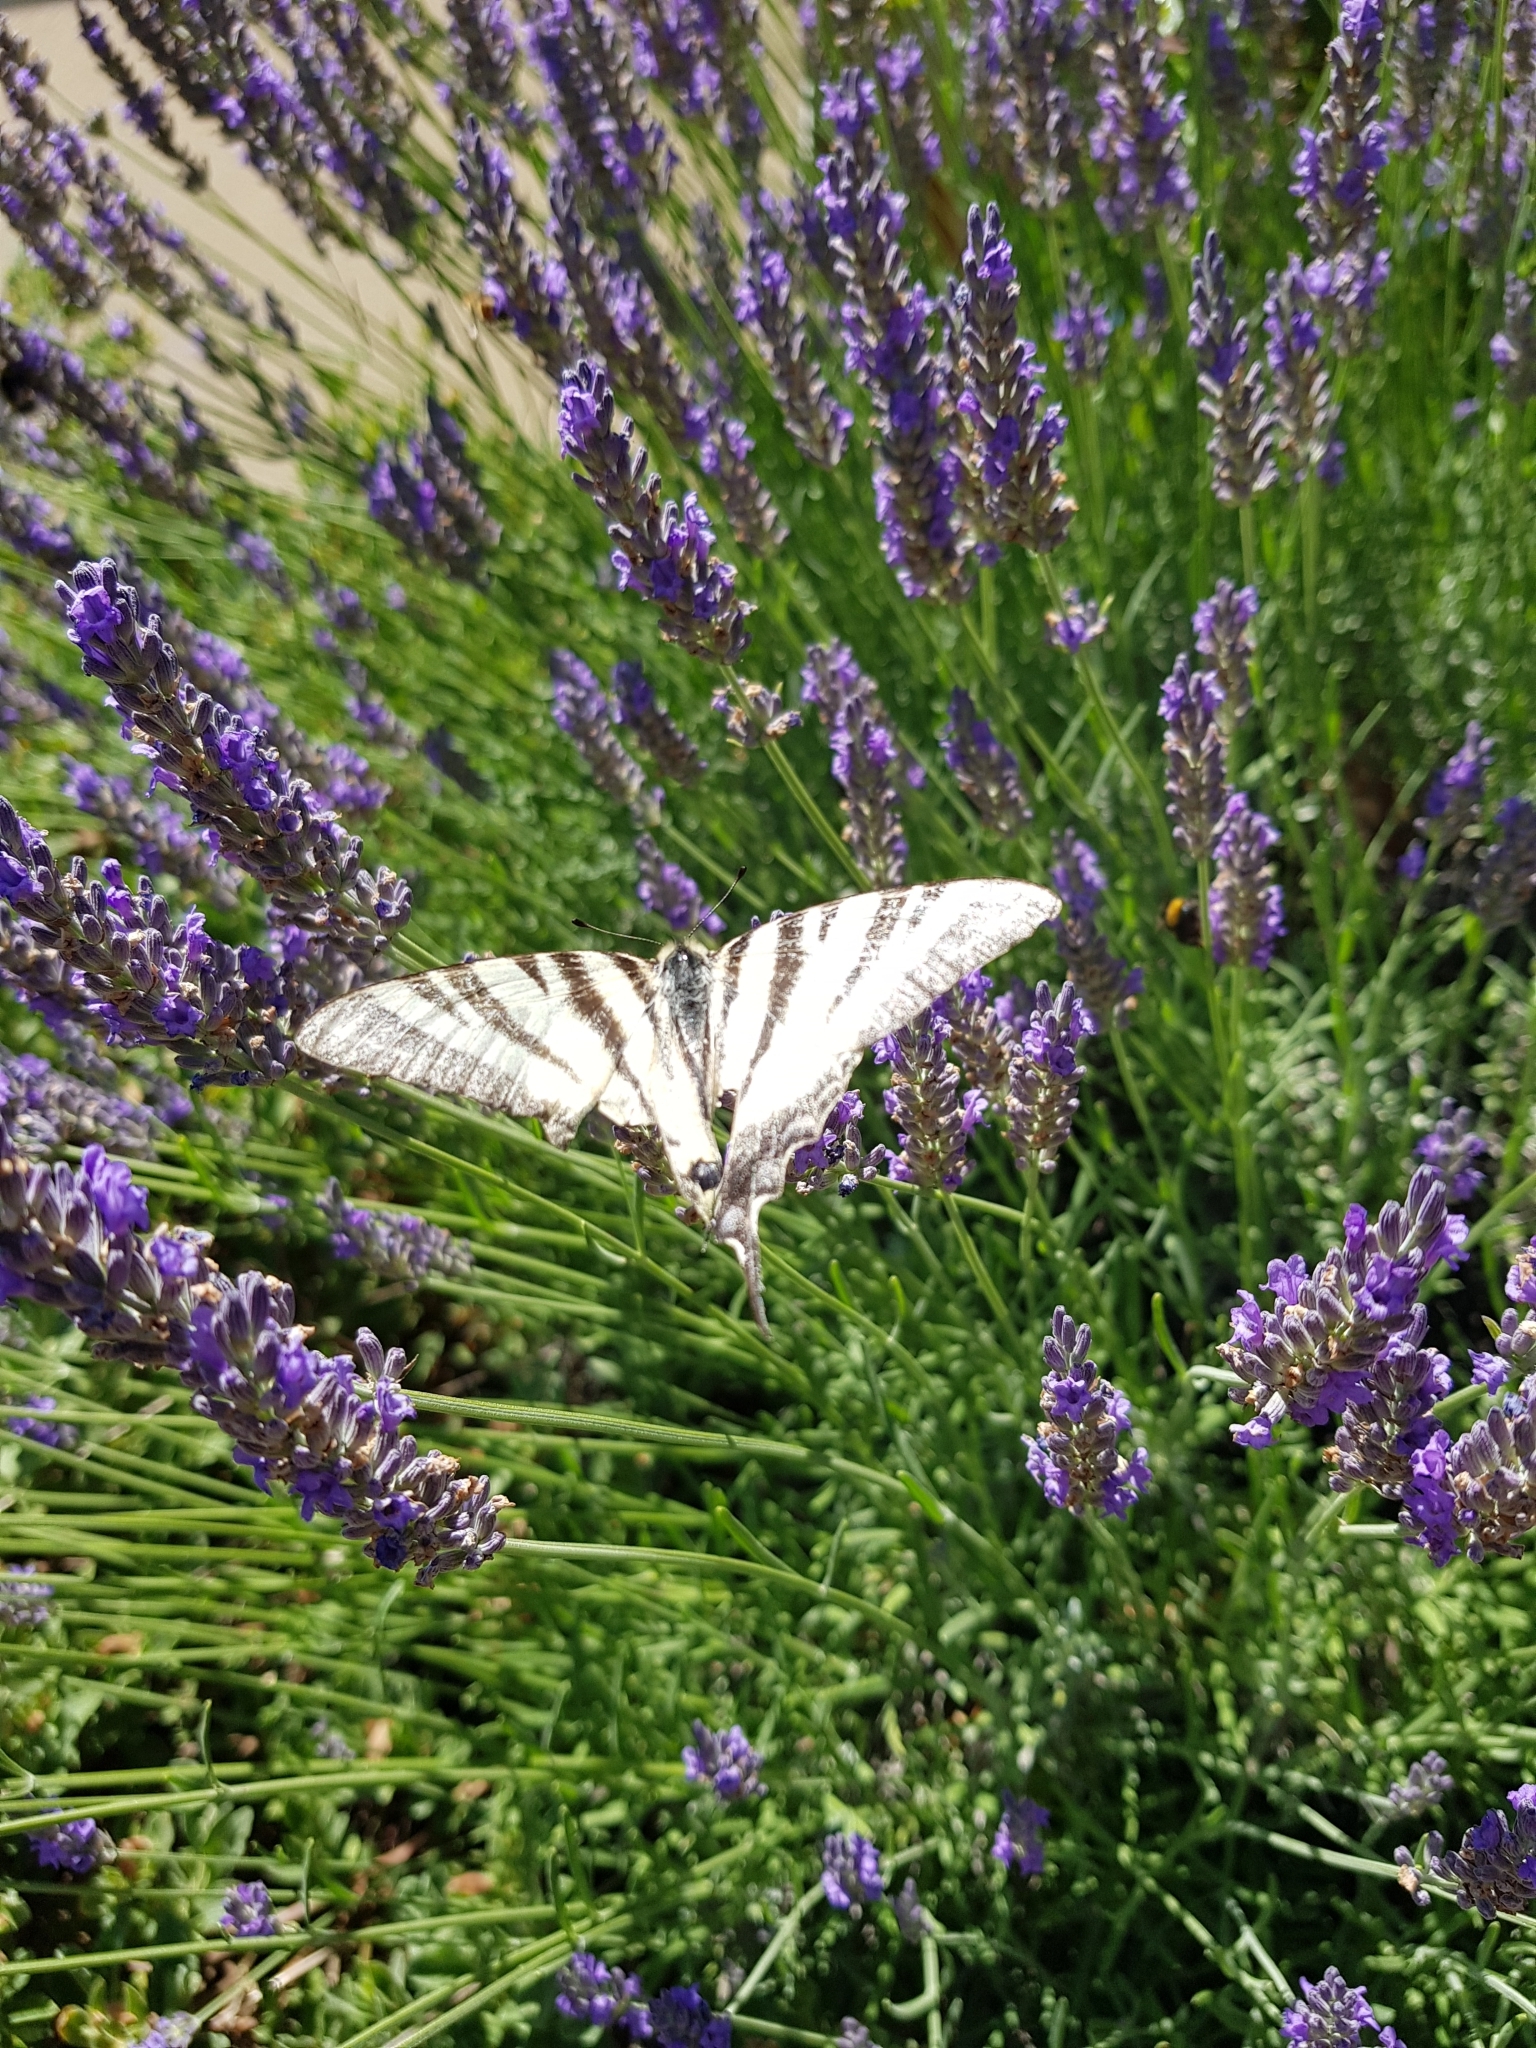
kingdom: Animalia
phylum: Arthropoda
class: Insecta
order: Lepidoptera
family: Papilionidae
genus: Iphiclides
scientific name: Iphiclides podalirius
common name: Scarce swallowtail
